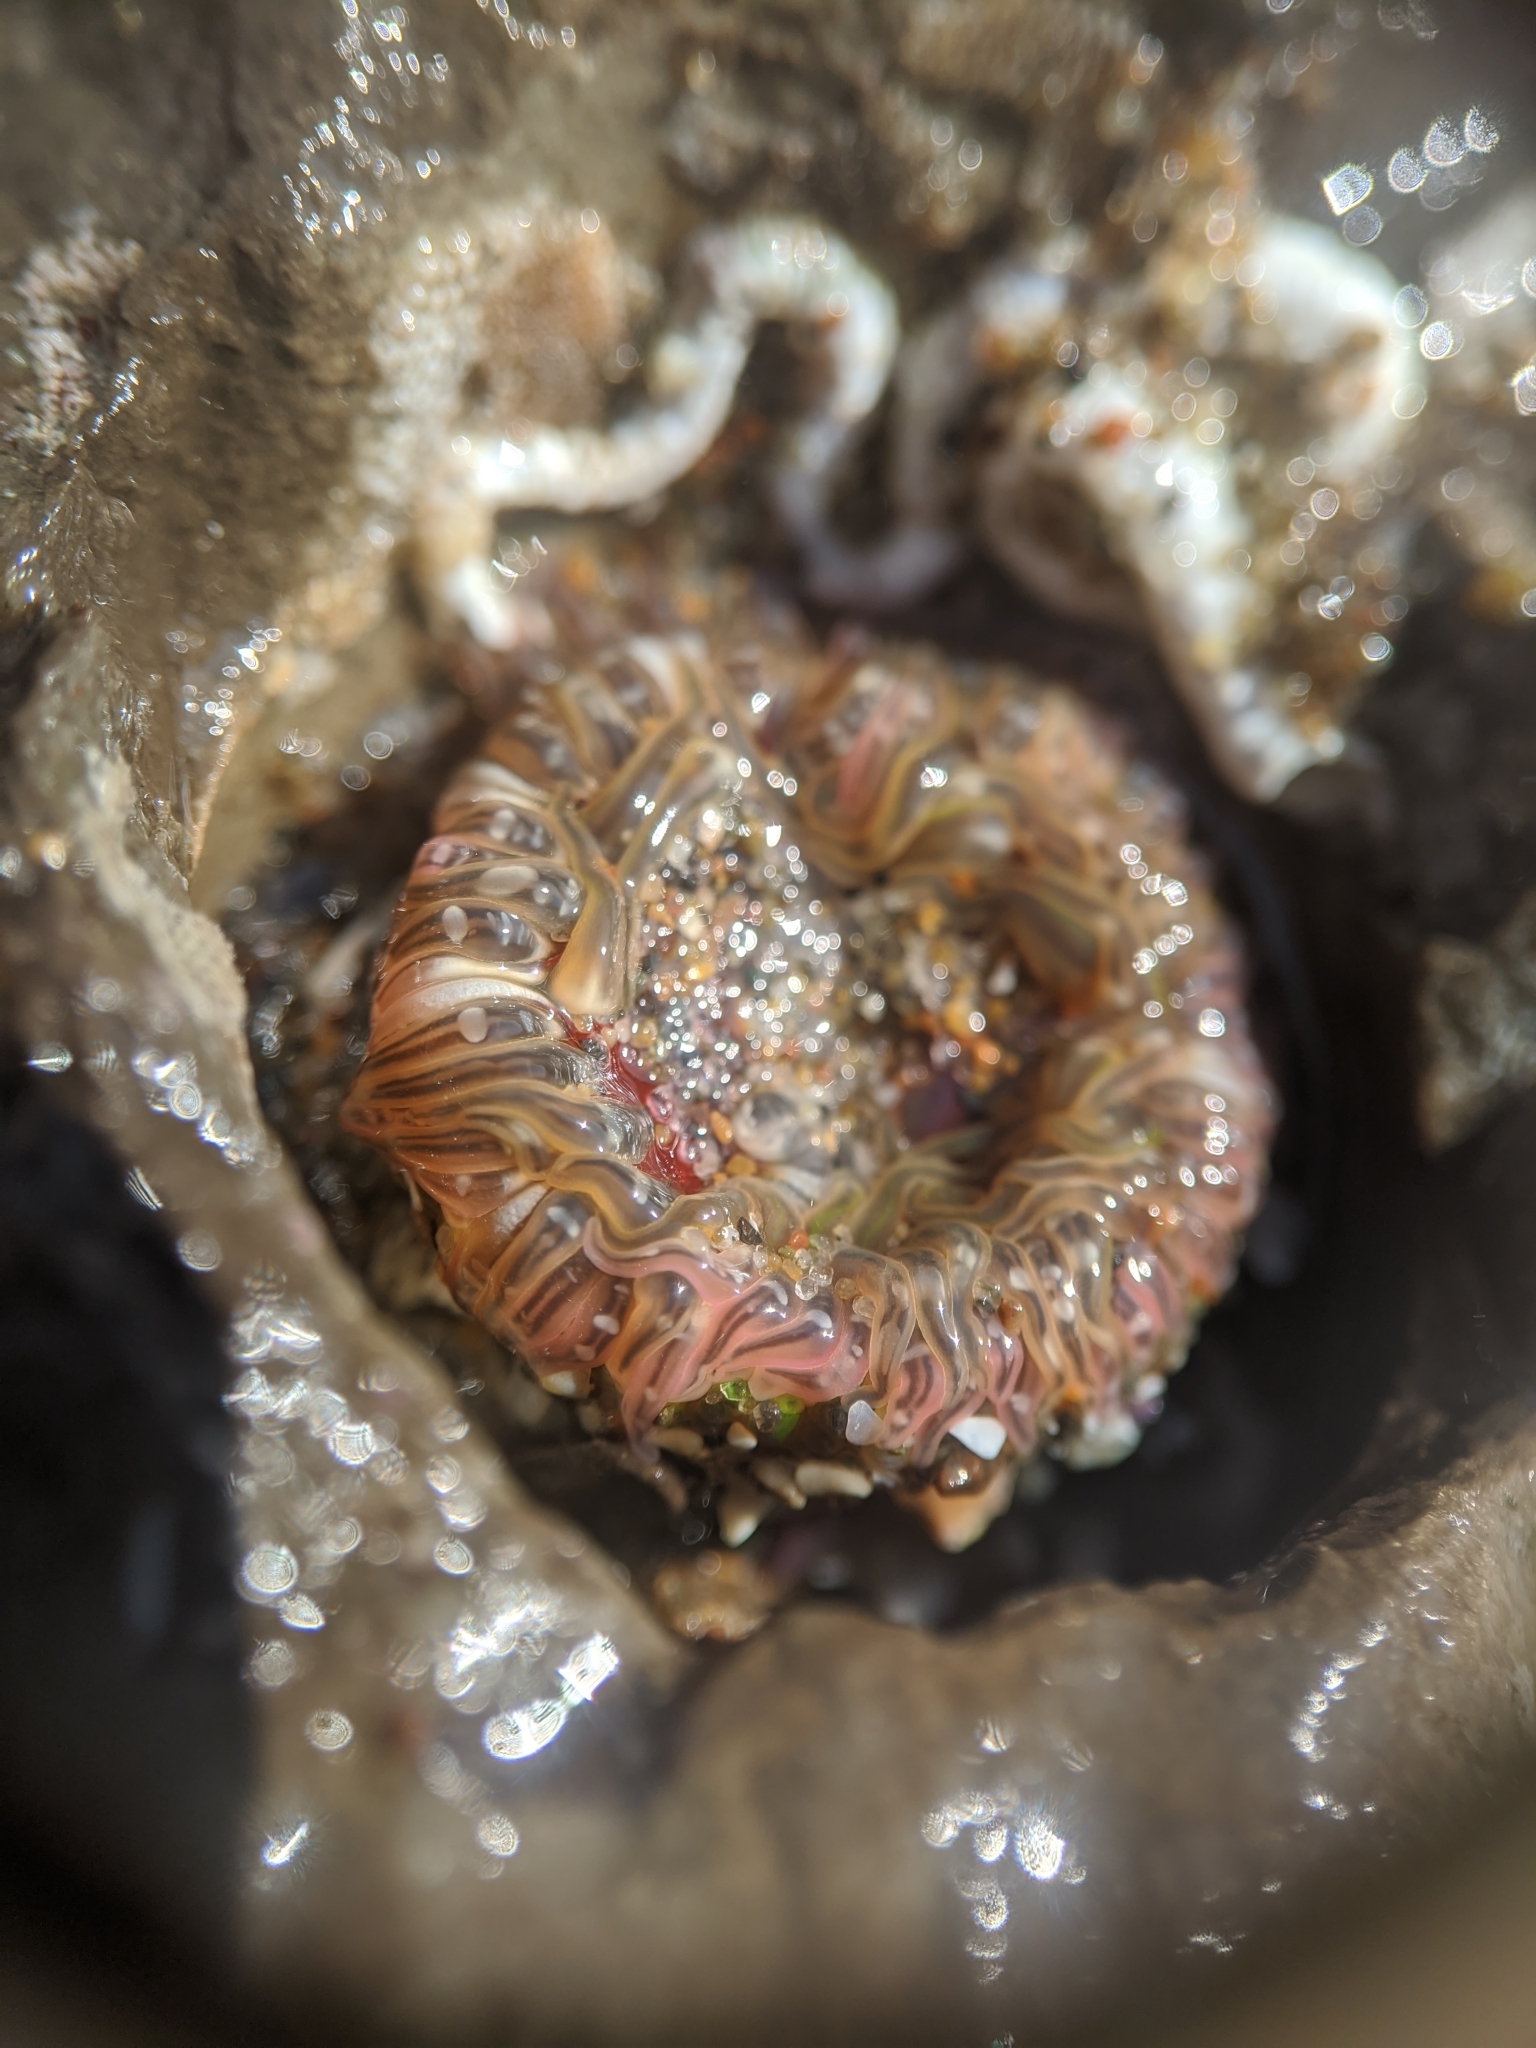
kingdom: Animalia
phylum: Cnidaria
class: Anthozoa
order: Actiniaria
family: Actiniidae
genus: Anthopleura
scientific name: Anthopleura artemisia
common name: Buried sea anemone
